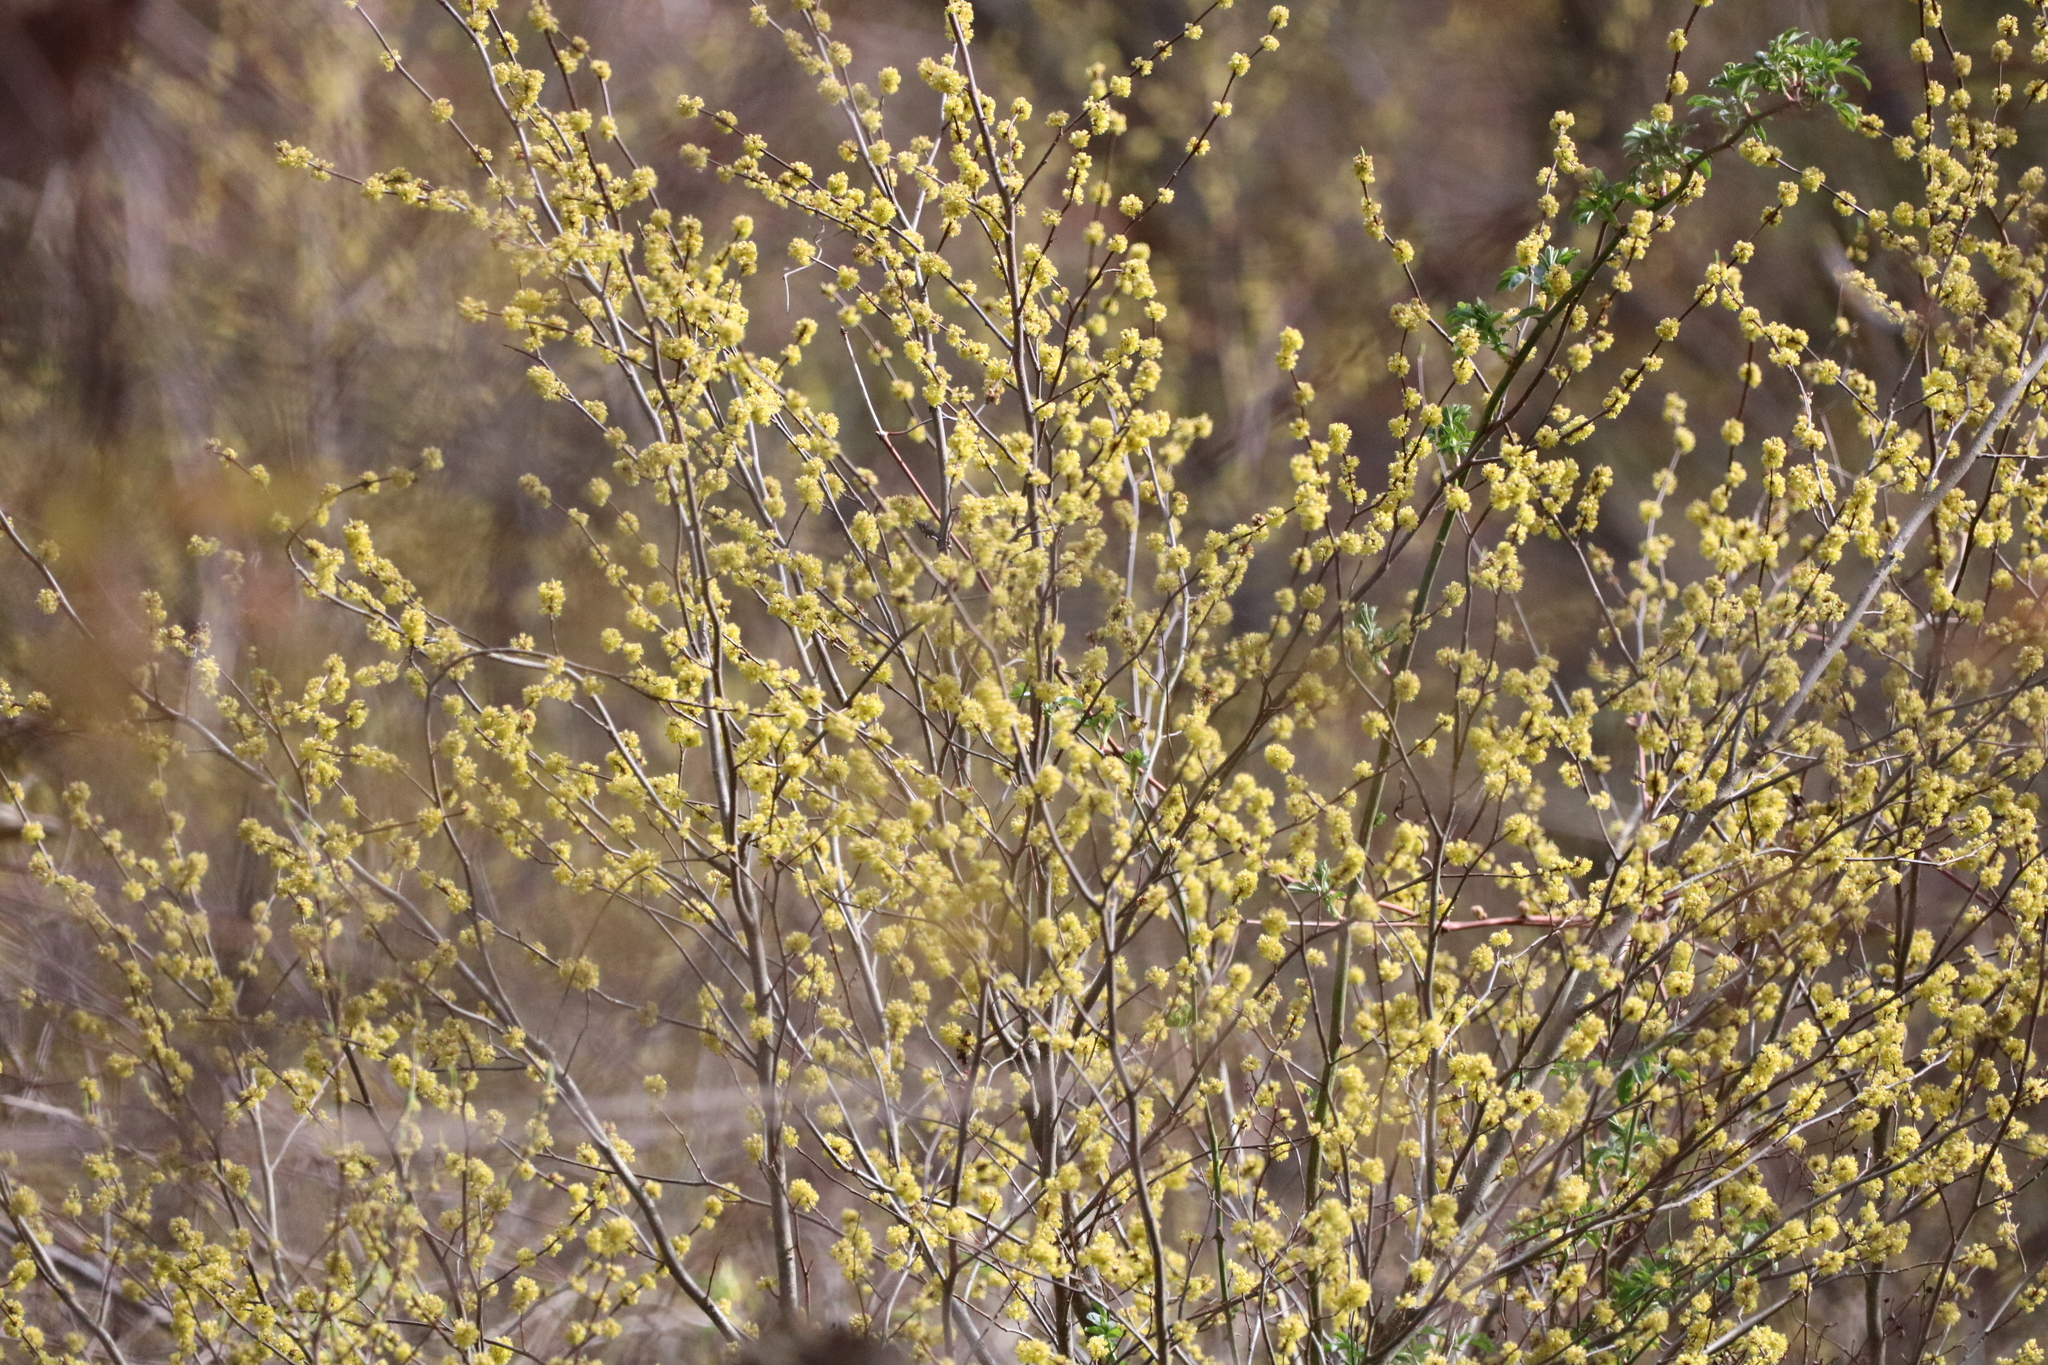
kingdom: Plantae
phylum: Tracheophyta
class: Magnoliopsida
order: Laurales
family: Lauraceae
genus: Lindera
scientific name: Lindera benzoin
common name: Spicebush
